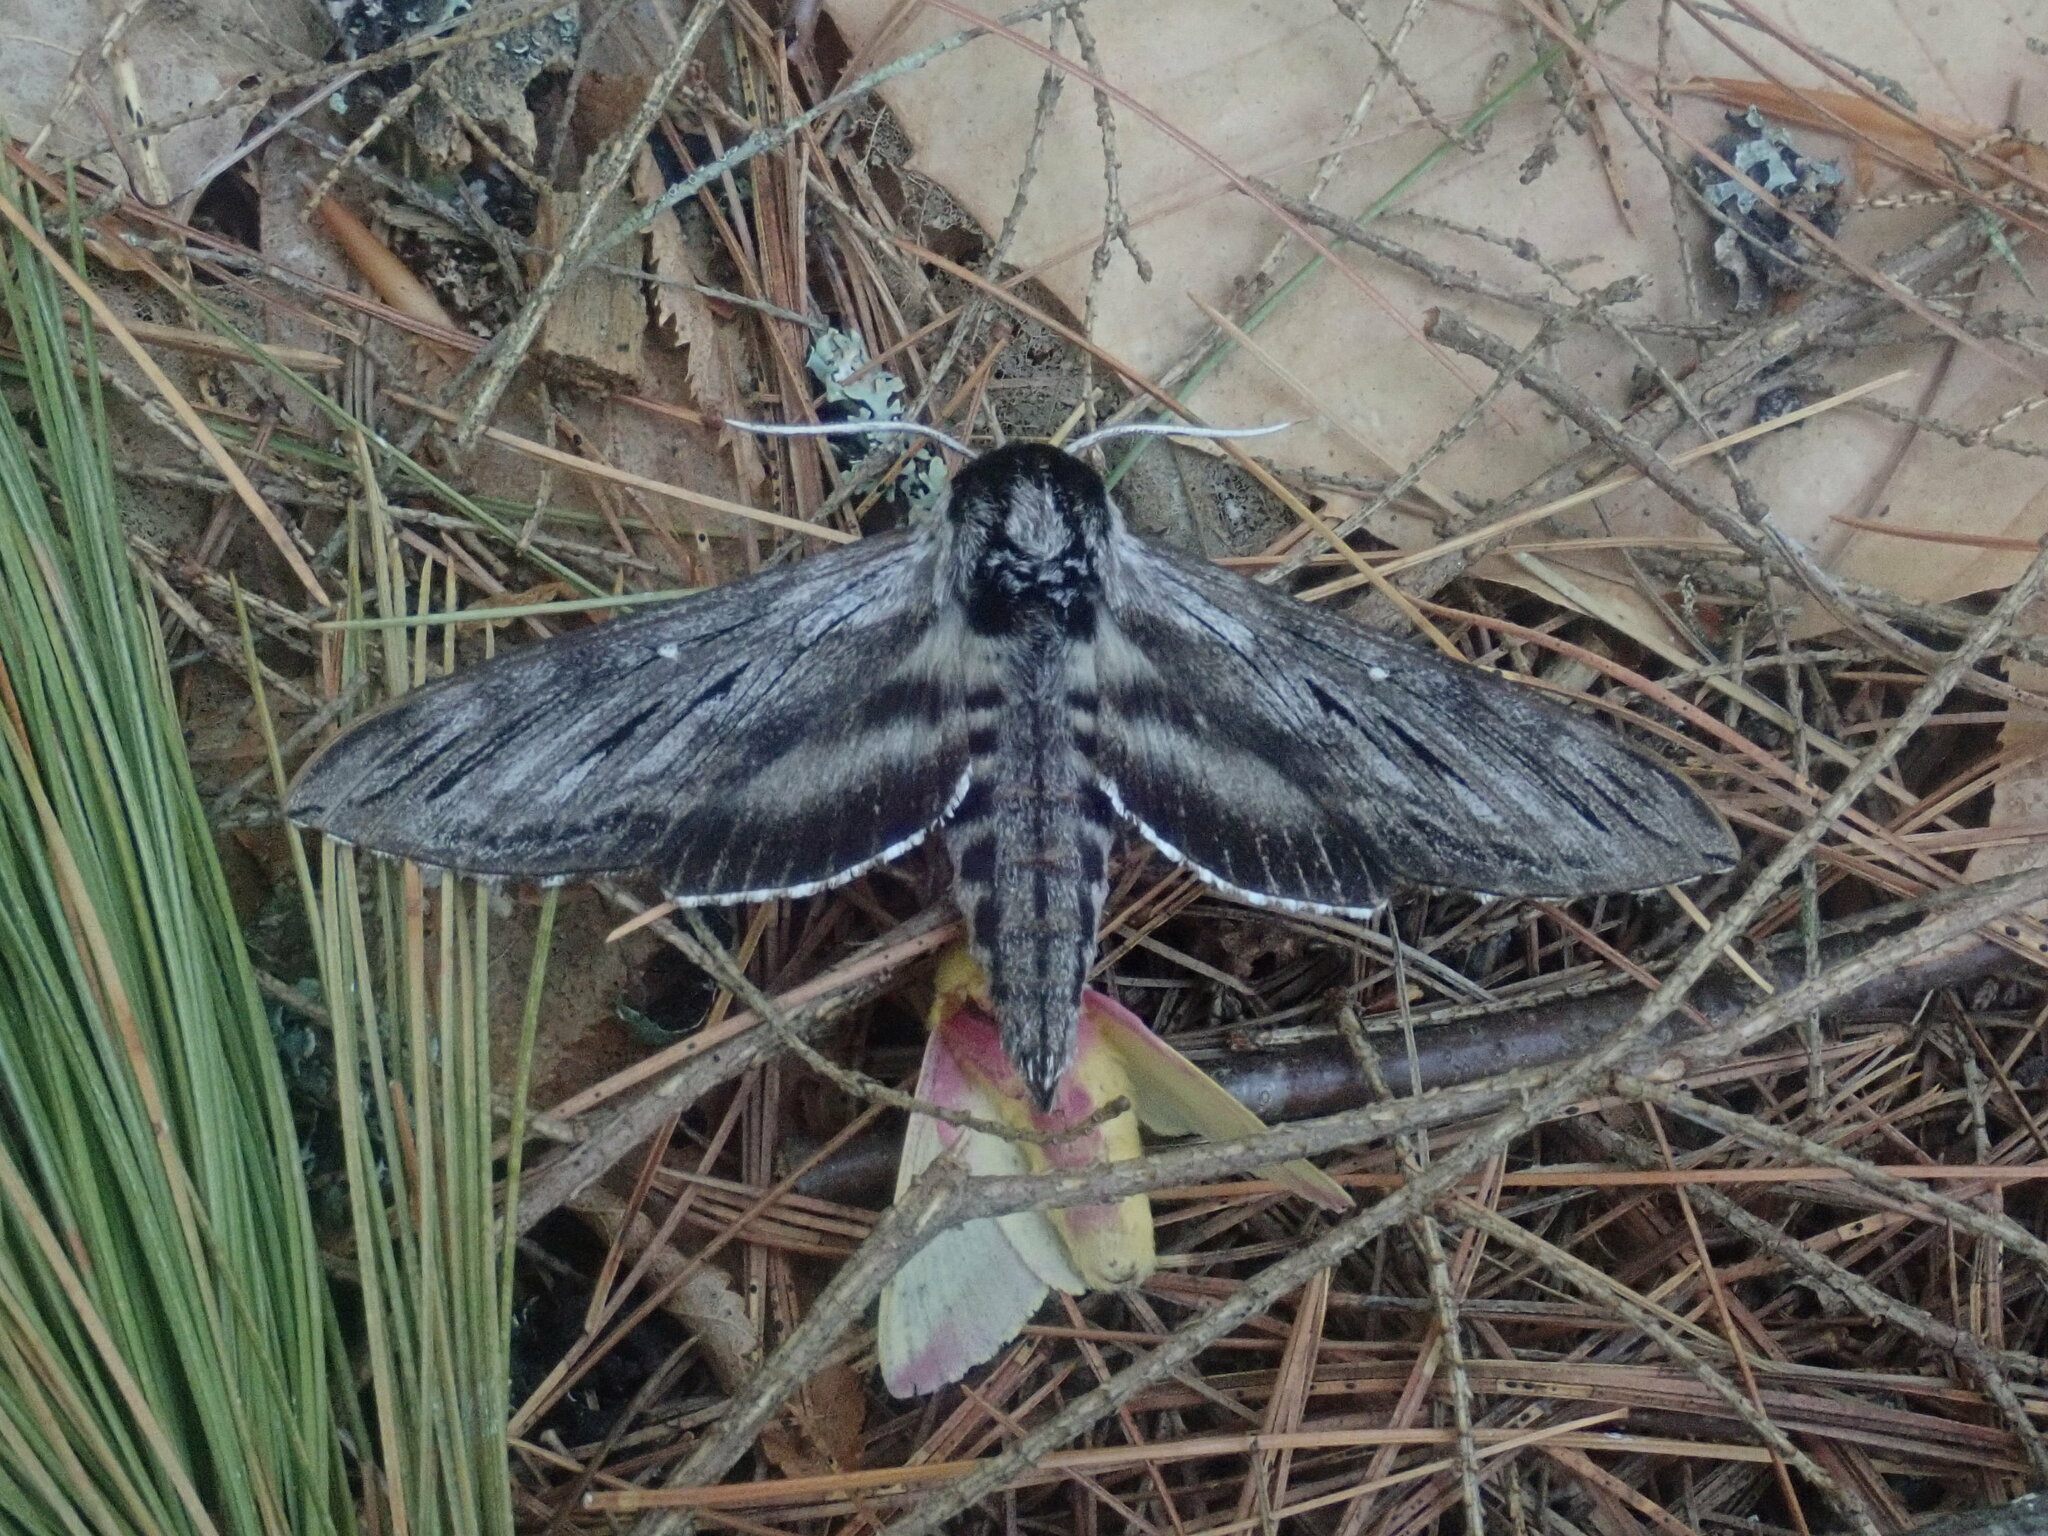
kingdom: Animalia
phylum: Arthropoda
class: Insecta
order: Lepidoptera
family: Sphingidae
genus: Sphinx
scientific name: Sphinx
